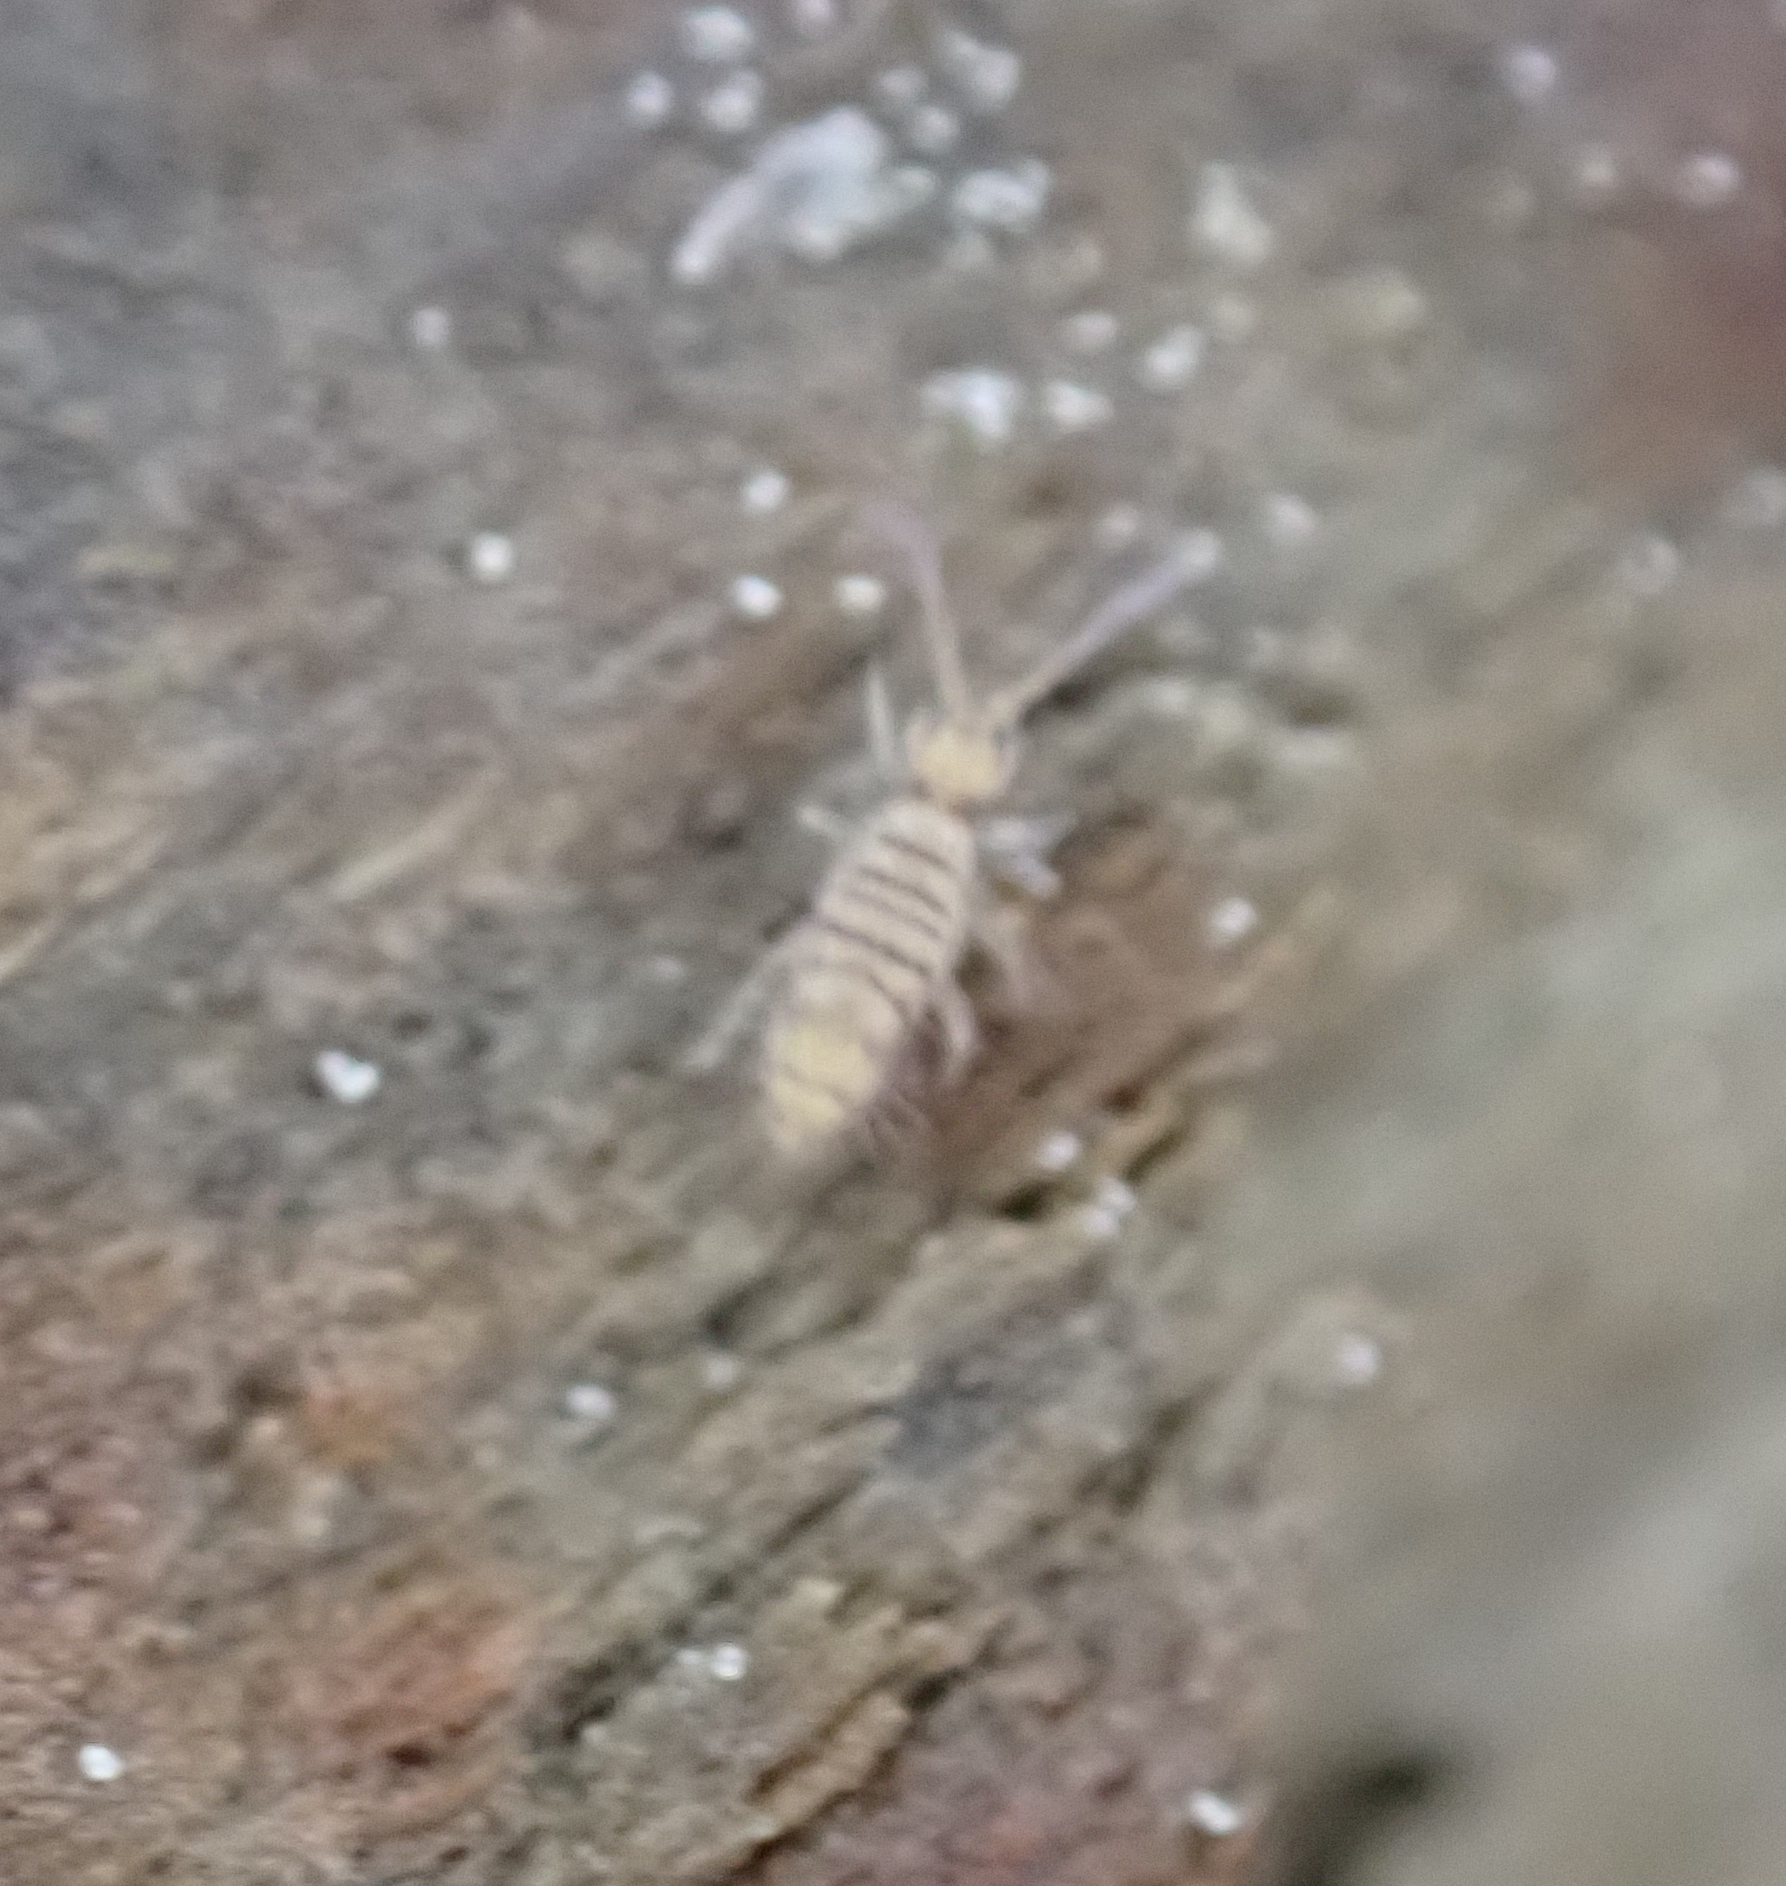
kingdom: Animalia
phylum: Arthropoda
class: Collembola
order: Entomobryomorpha
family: Entomobryidae
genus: Entomobrya
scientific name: Entomobrya atrocincta
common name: Springtail
